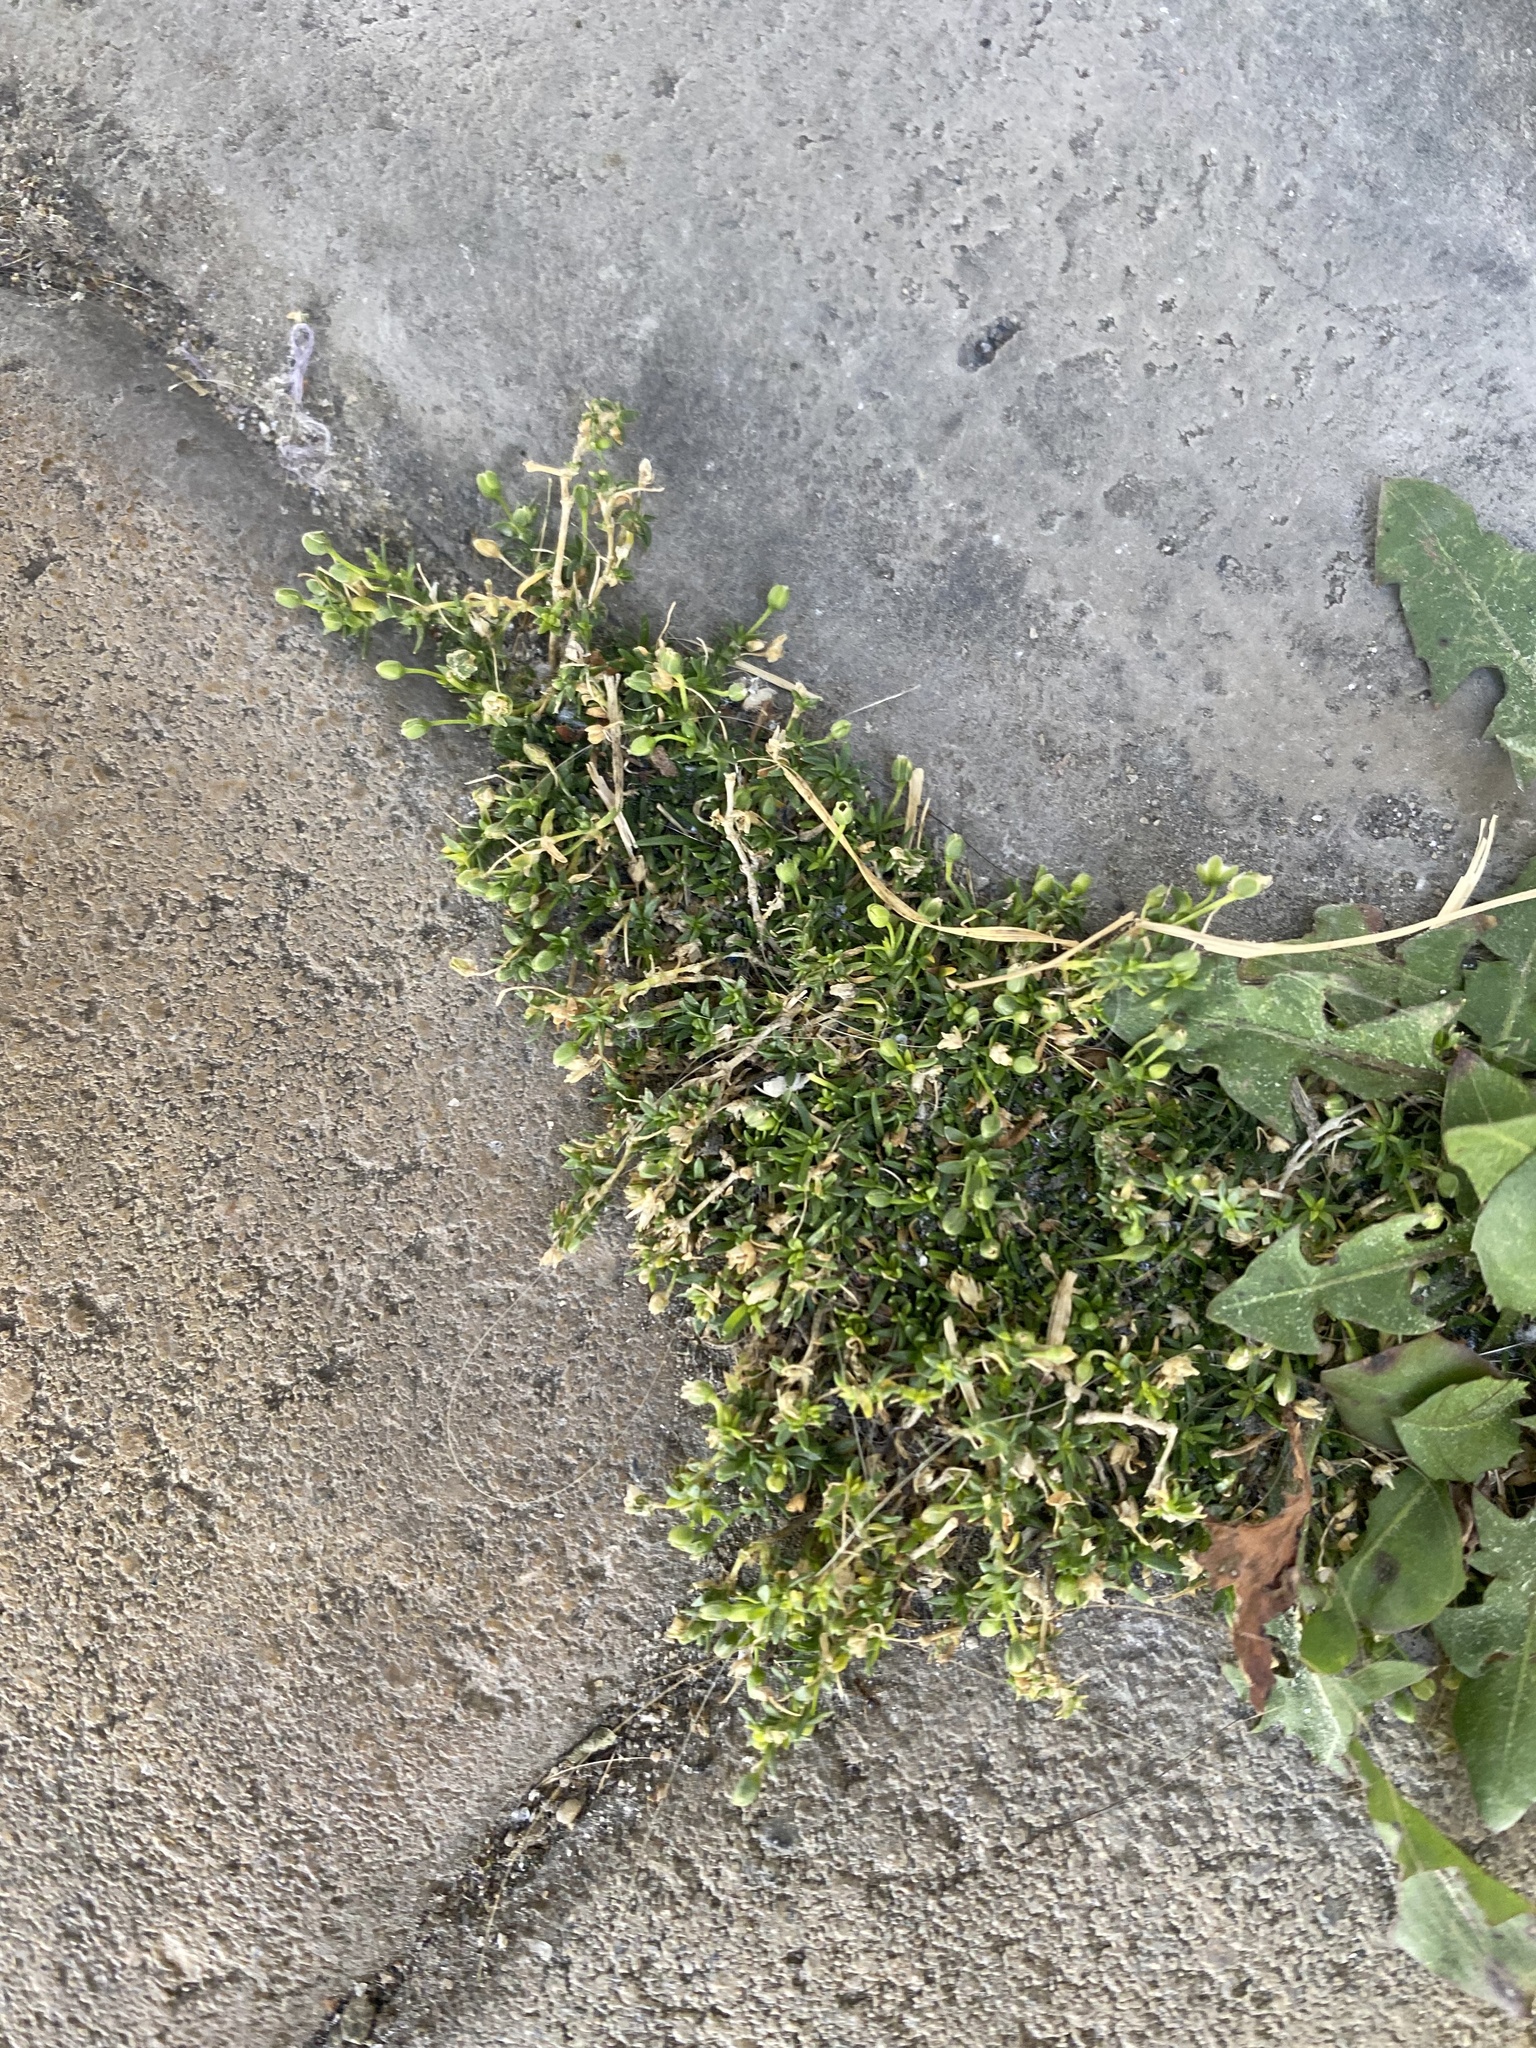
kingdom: Plantae
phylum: Tracheophyta
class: Magnoliopsida
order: Caryophyllales
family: Caryophyllaceae
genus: Sagina
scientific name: Sagina procumbens
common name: Procumbent pearlwort
